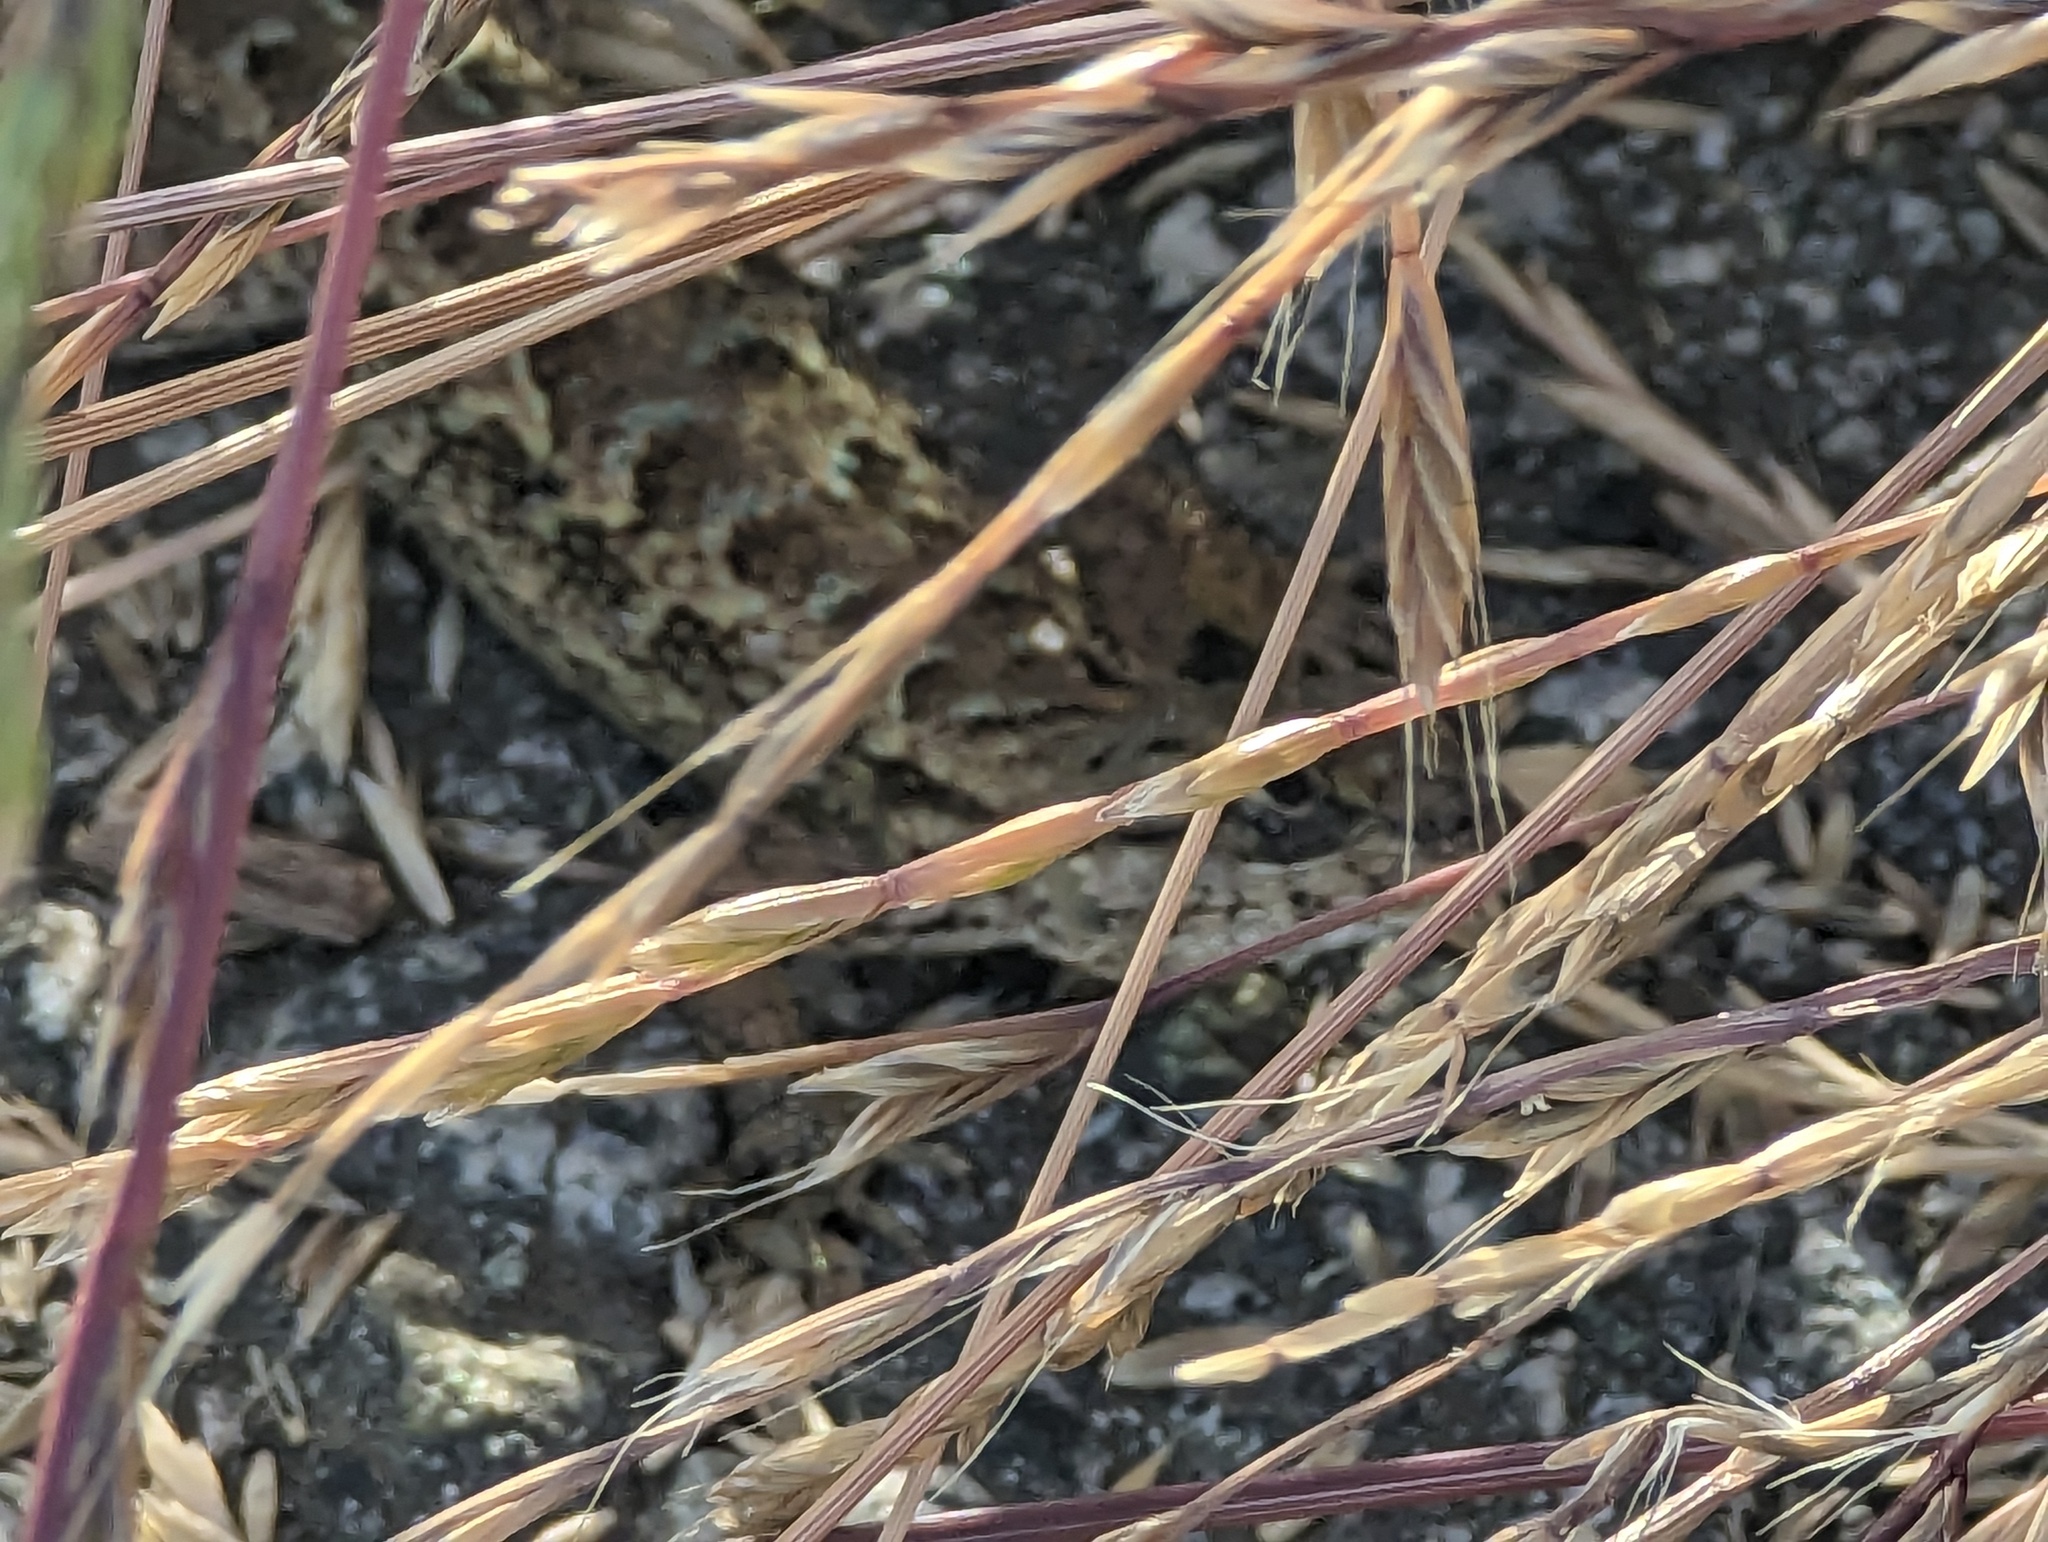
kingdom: Animalia
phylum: Chordata
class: Squamata
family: Phrynosomatidae
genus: Sceloporus
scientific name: Sceloporus occidentalis
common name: Western fence lizard
